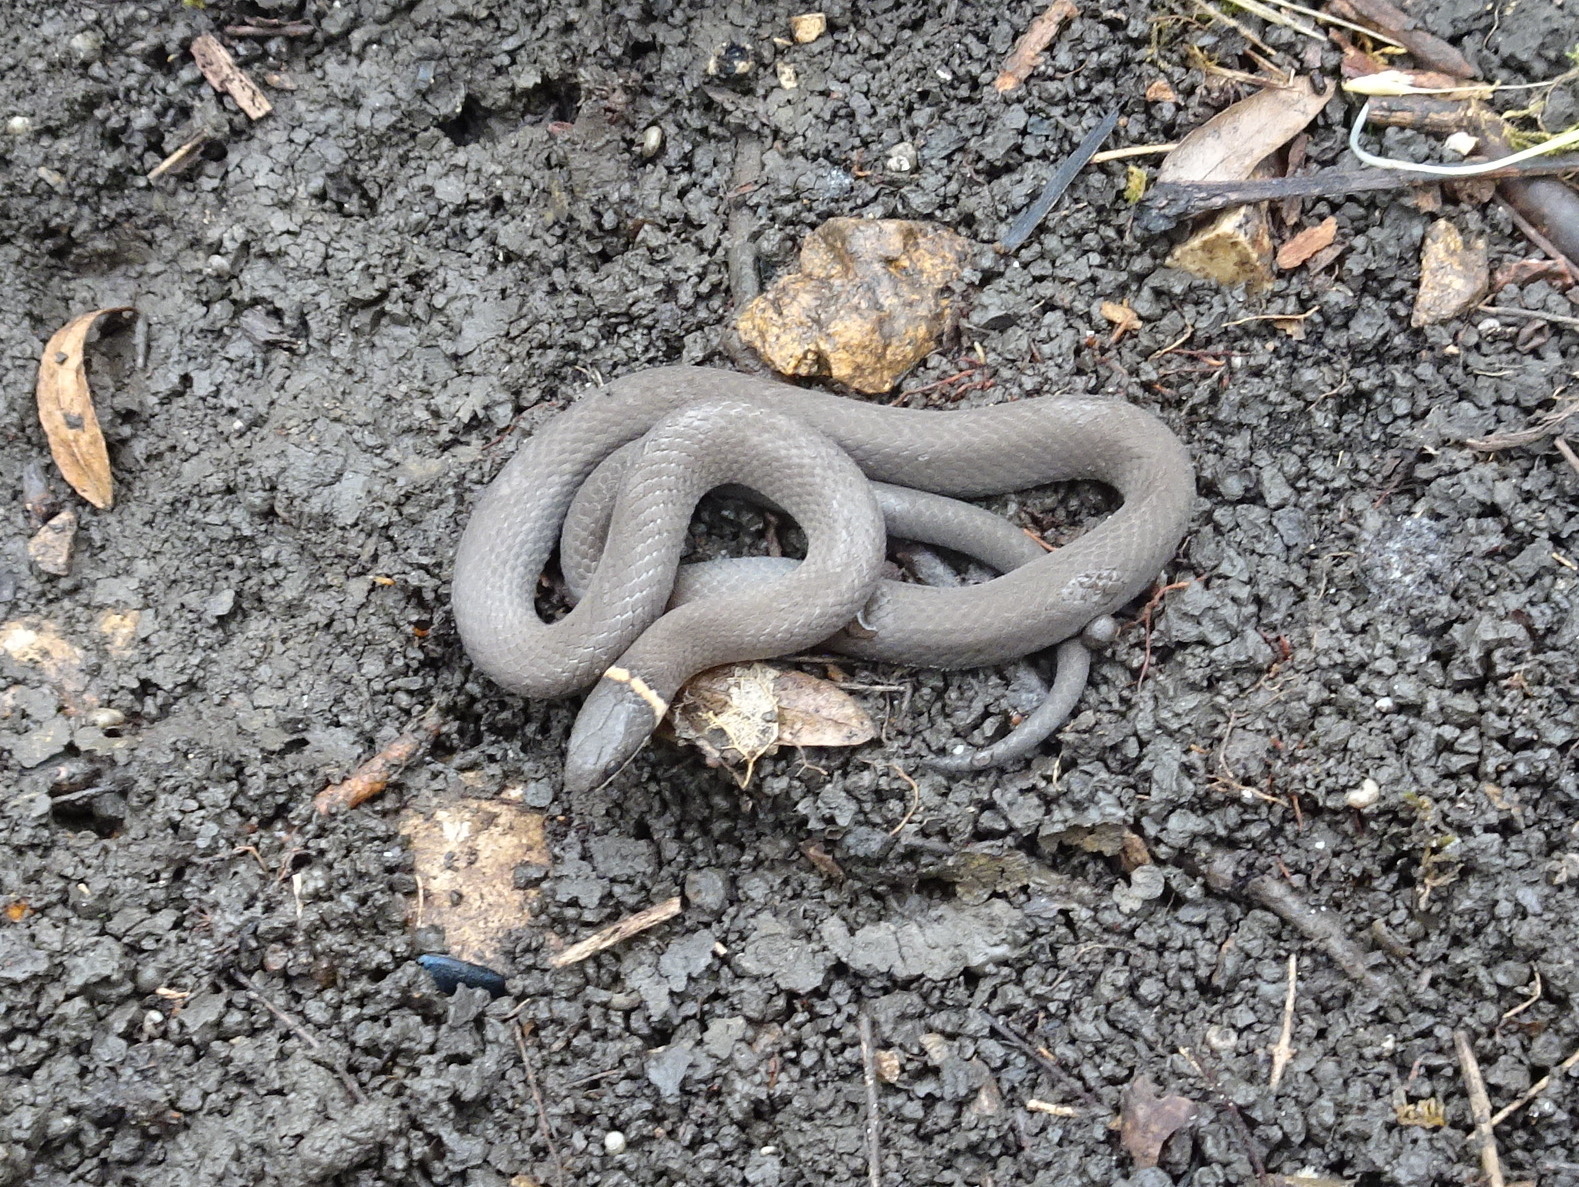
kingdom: Animalia
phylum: Chordata
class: Squamata
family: Colubridae
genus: Diadophis
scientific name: Diadophis punctatus
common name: Ringneck snake
